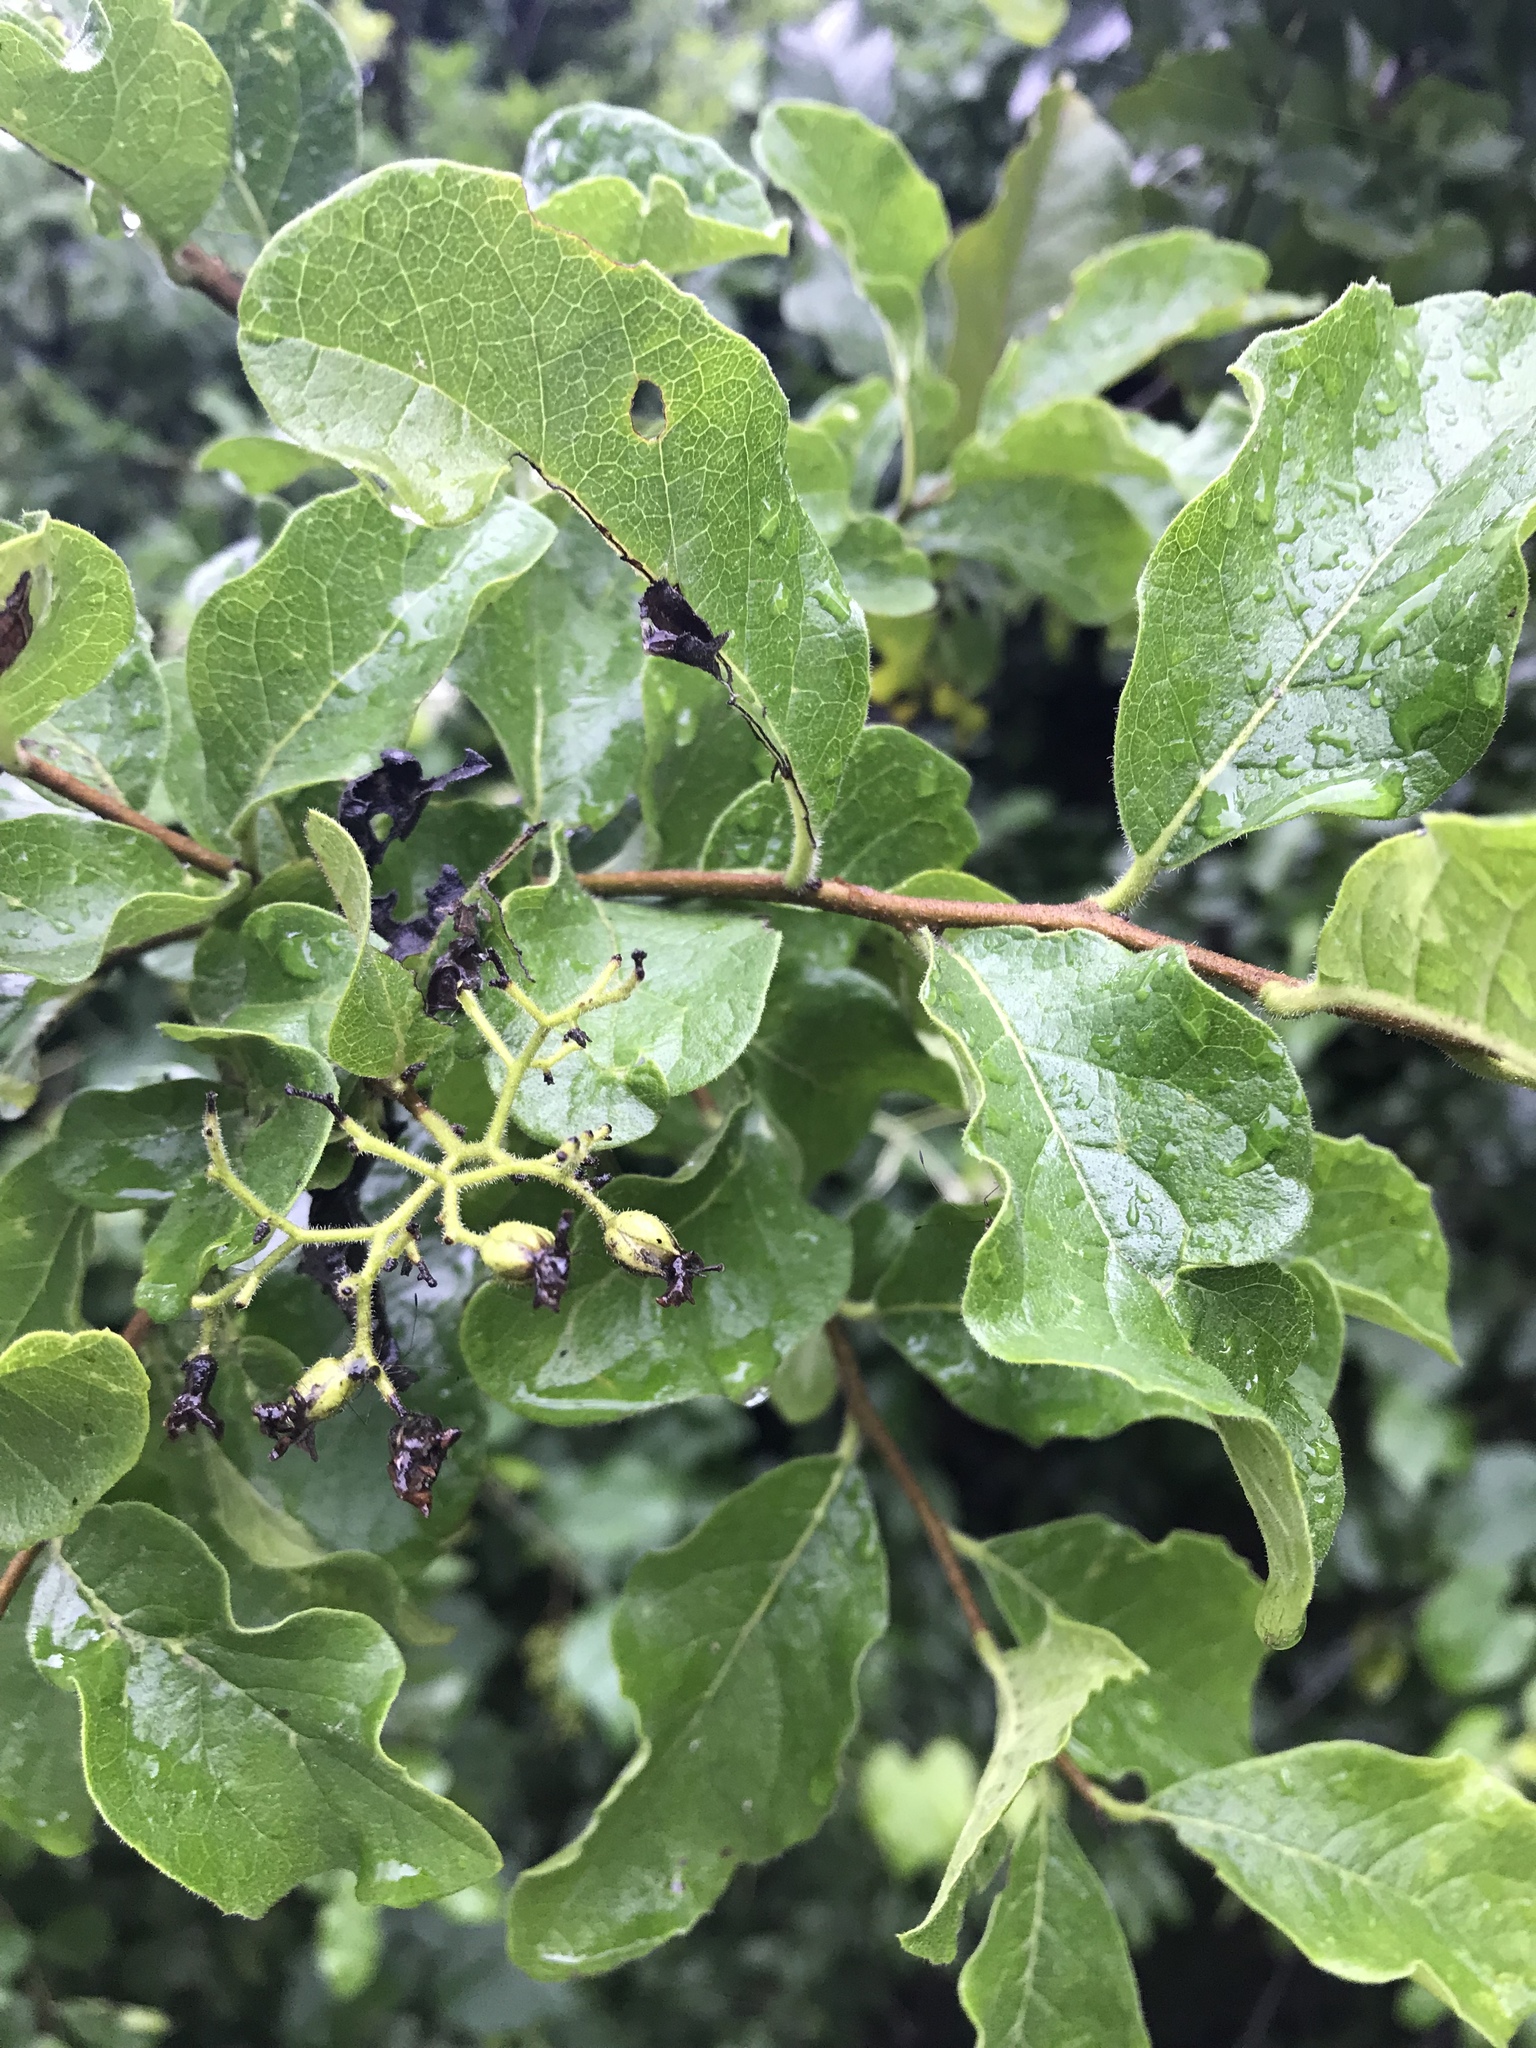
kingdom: Plantae
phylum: Tracheophyta
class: Magnoliopsida
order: Boraginales
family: Ehretiaceae
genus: Ehretia
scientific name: Ehretia anacua
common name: Sugarberry
